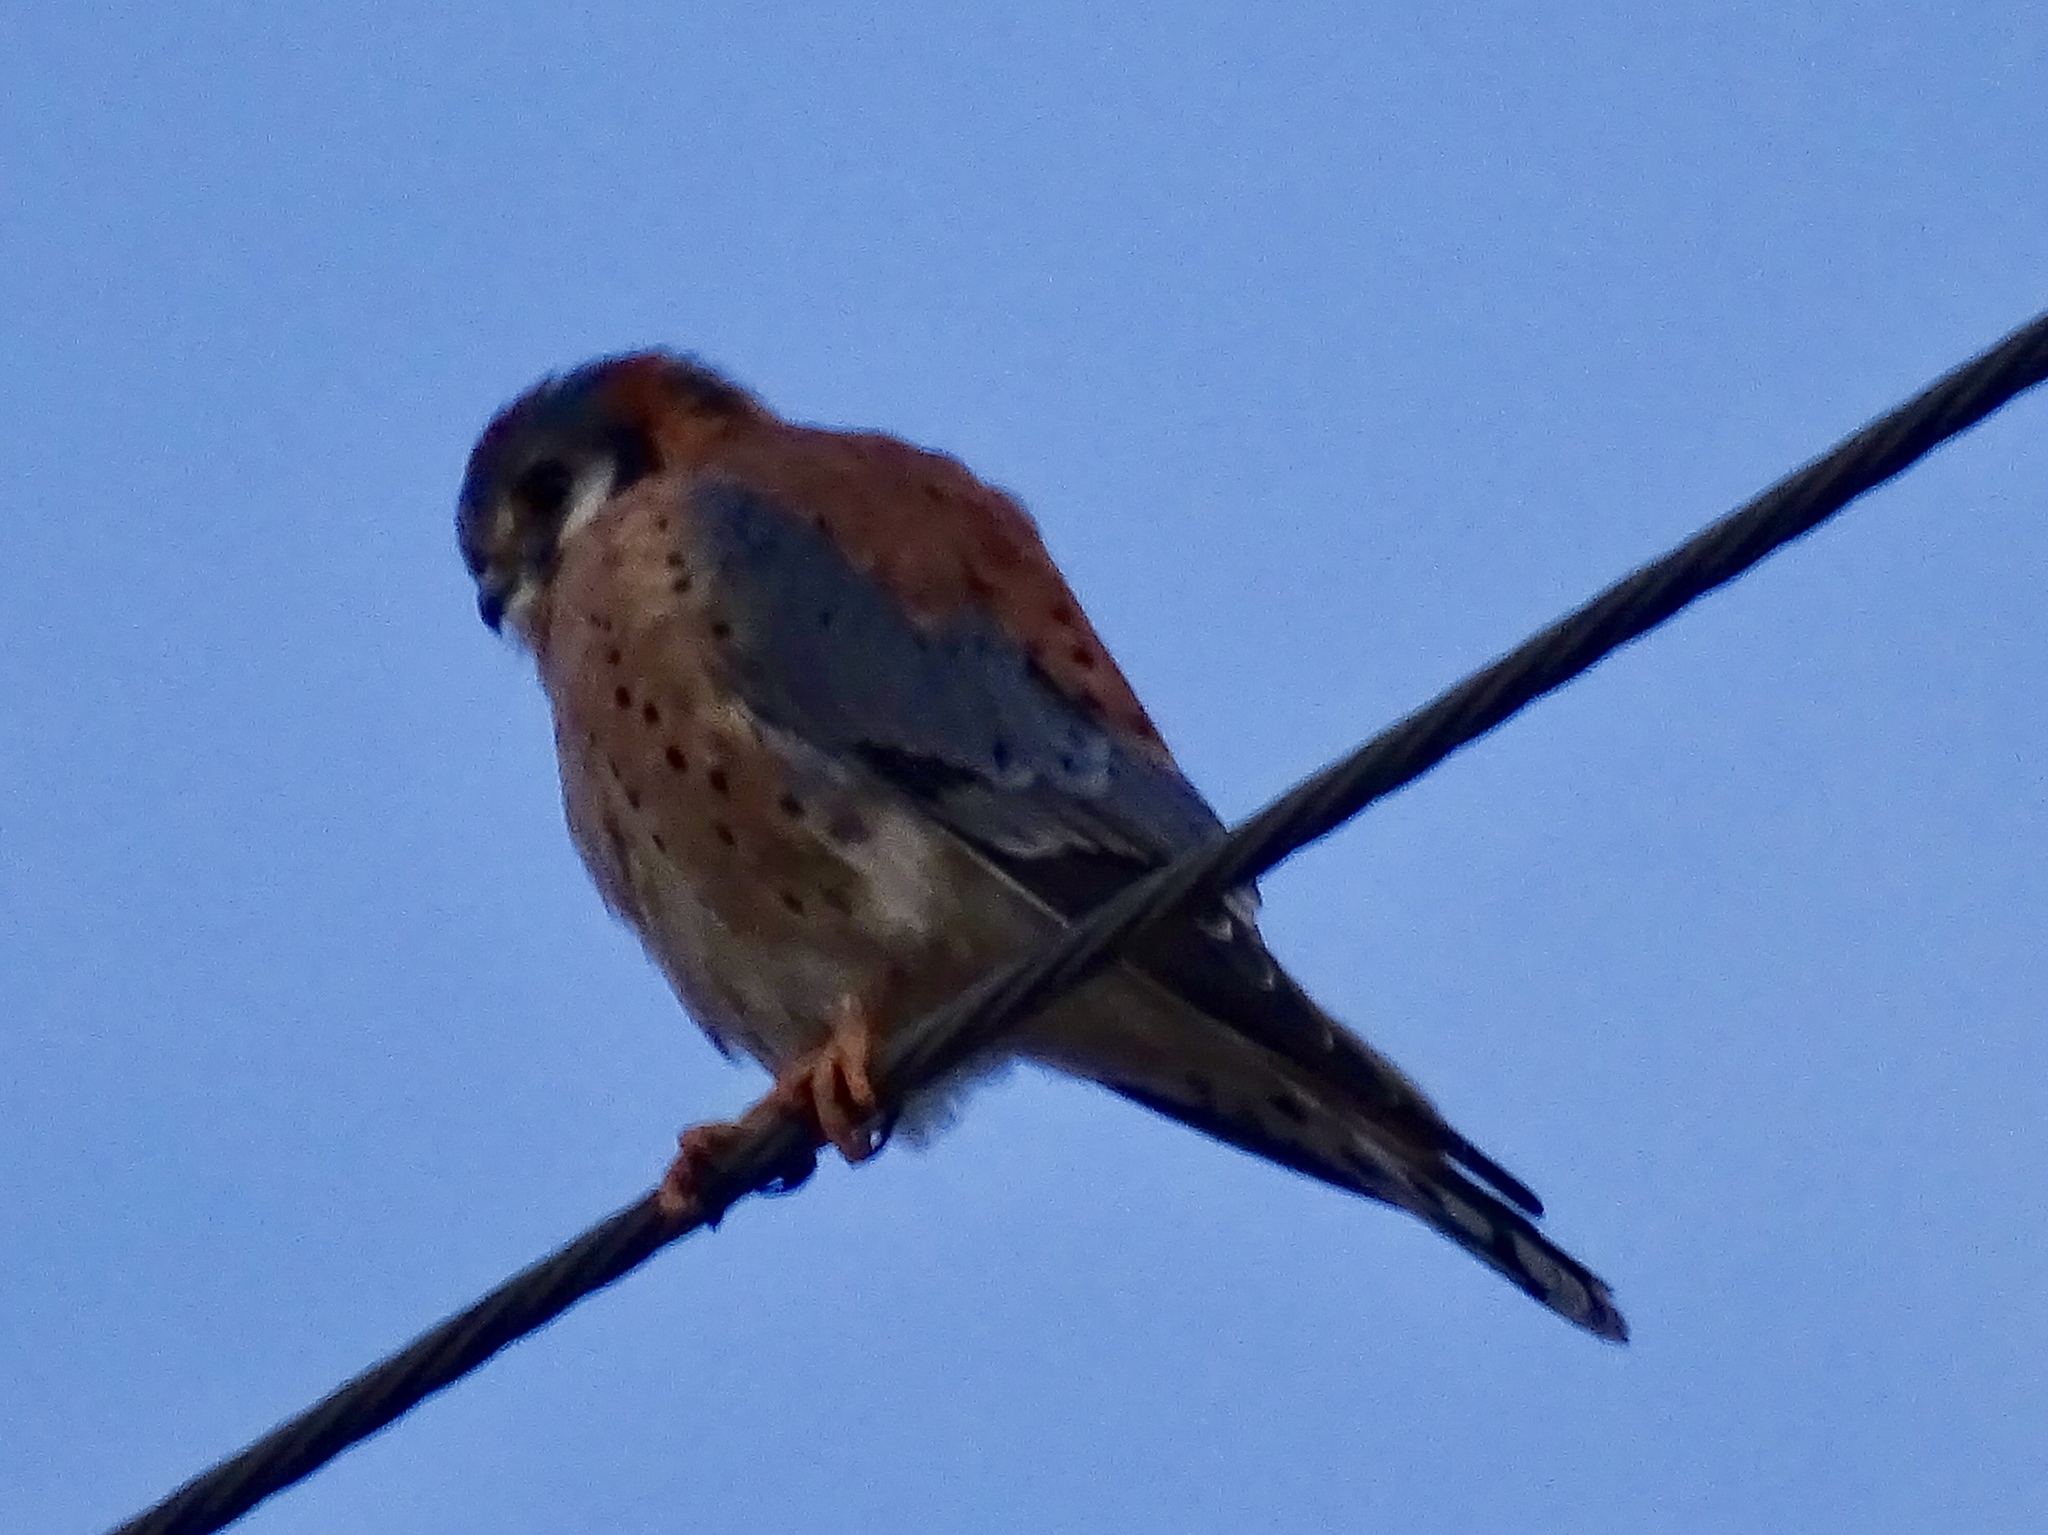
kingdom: Animalia
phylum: Chordata
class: Aves
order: Falconiformes
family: Falconidae
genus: Falco
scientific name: Falco sparverius
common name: American kestrel
